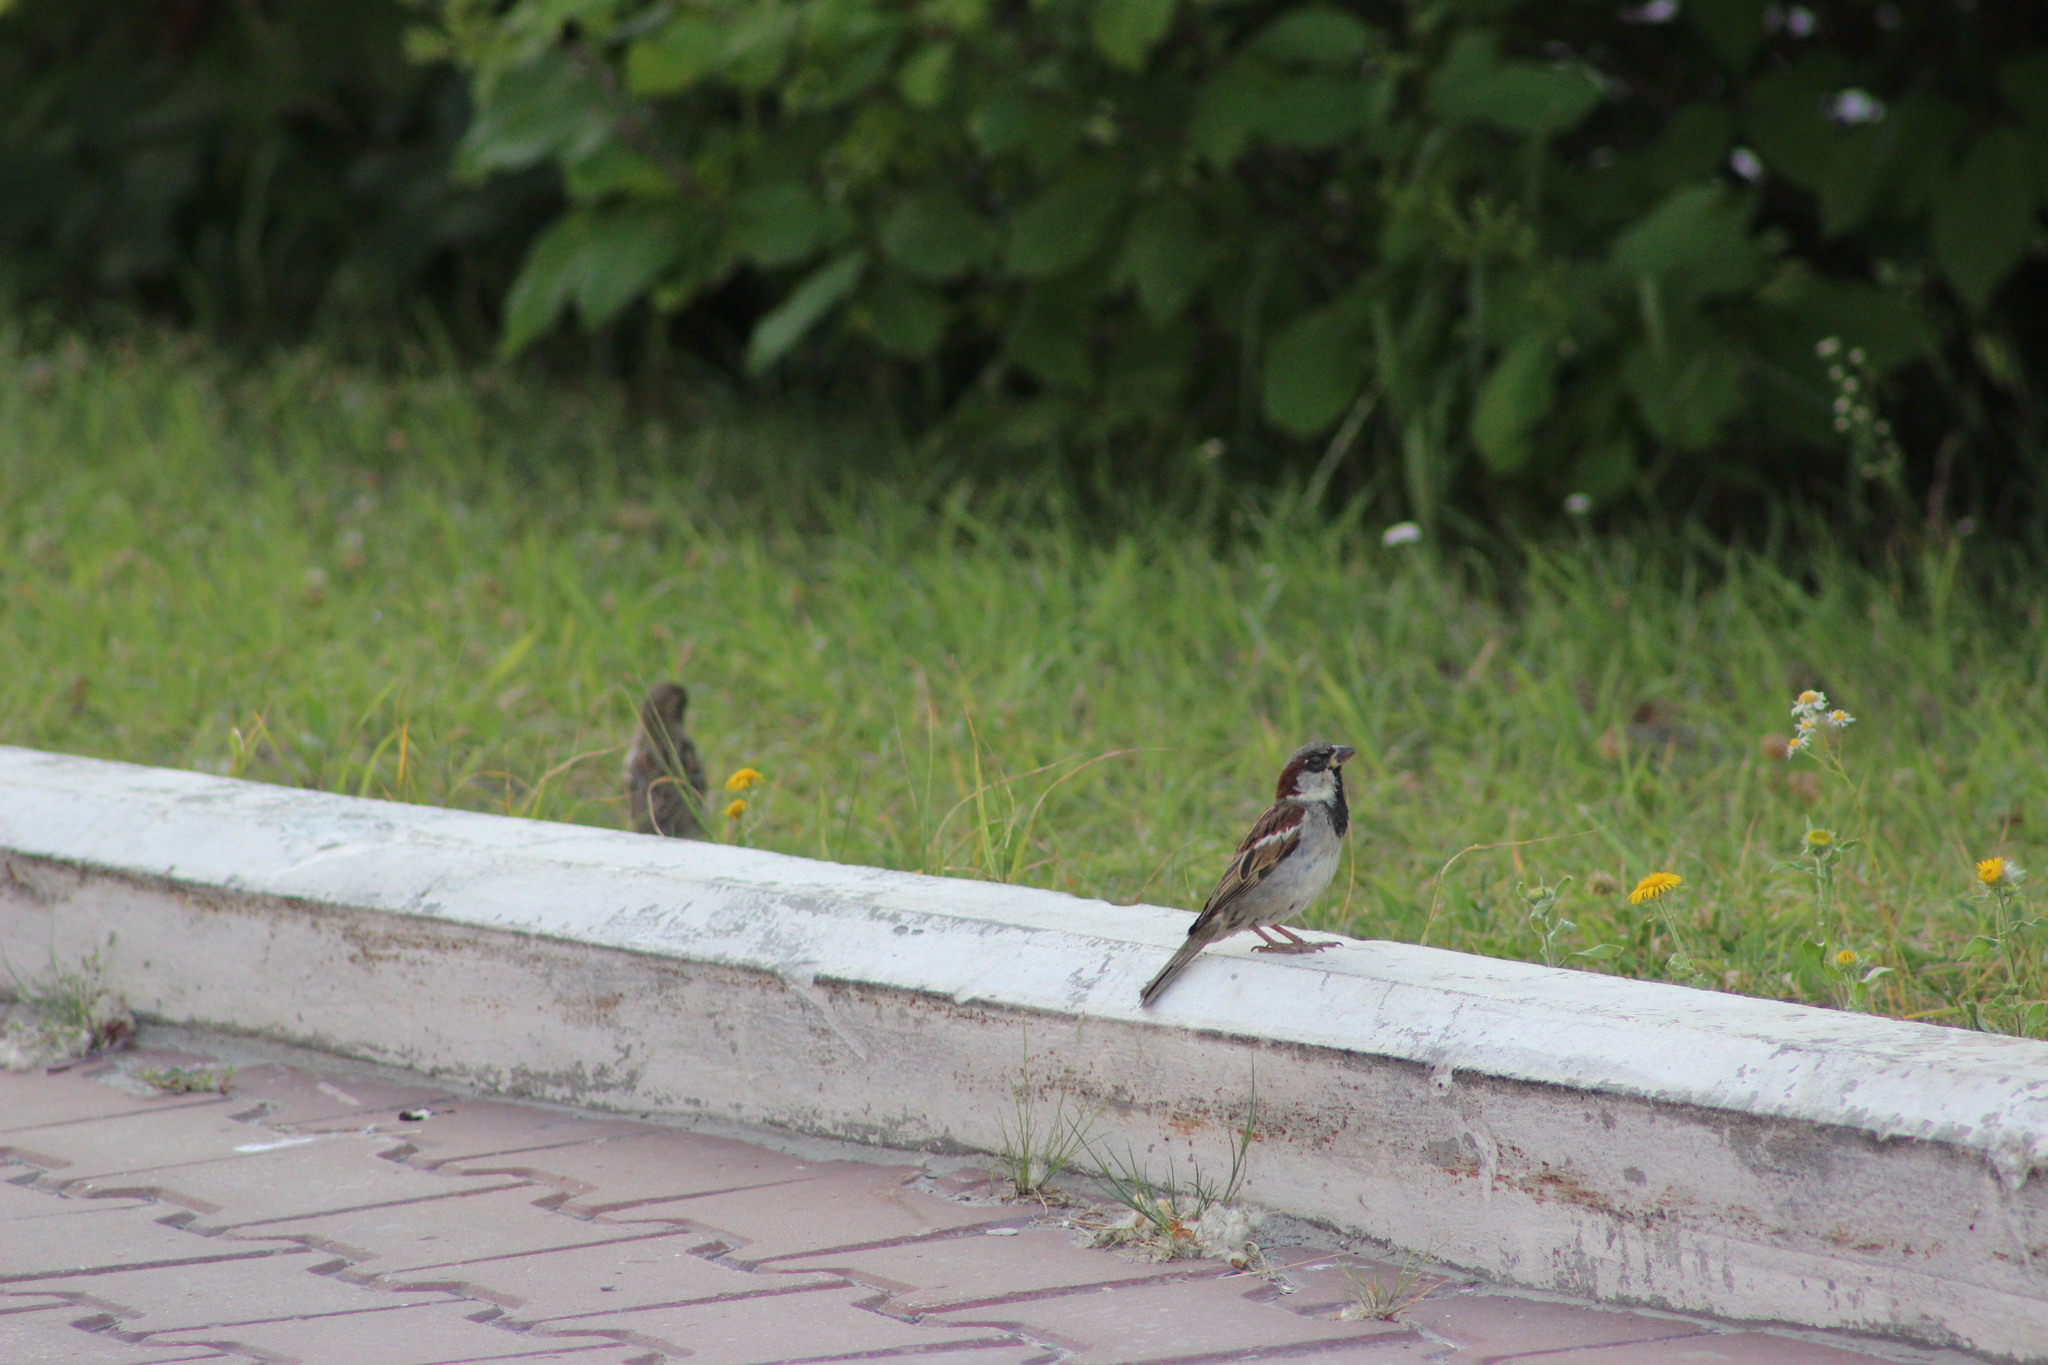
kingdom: Animalia
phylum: Chordata
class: Aves
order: Passeriformes
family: Passeridae
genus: Passer
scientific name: Passer domesticus
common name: House sparrow
